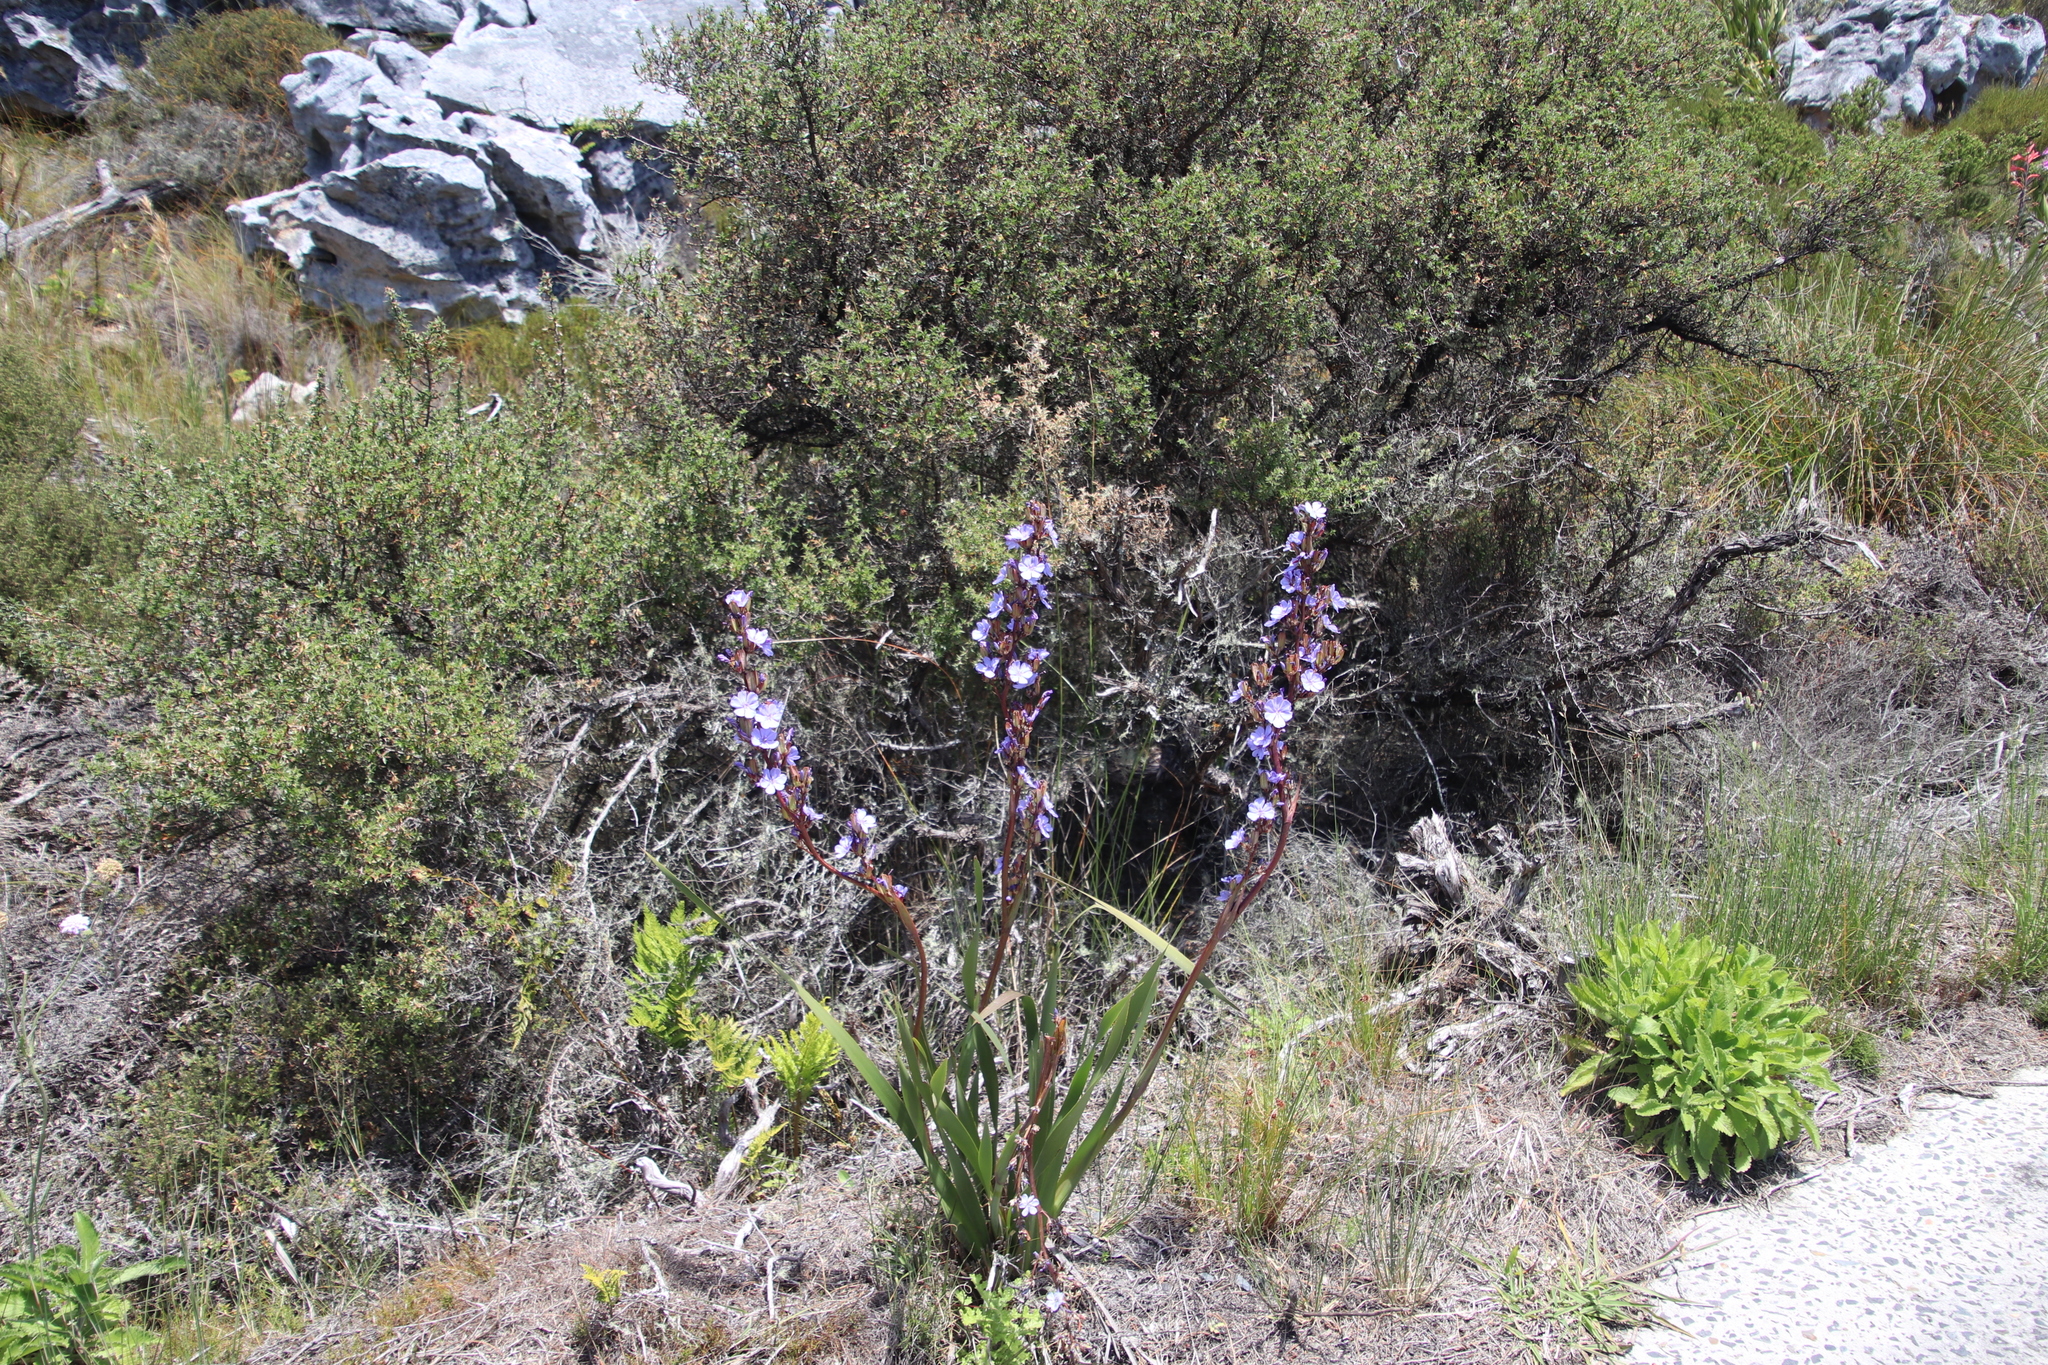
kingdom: Plantae
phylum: Tracheophyta
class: Liliopsida
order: Asparagales
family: Iridaceae
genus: Aristea
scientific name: Aristea bakeri
